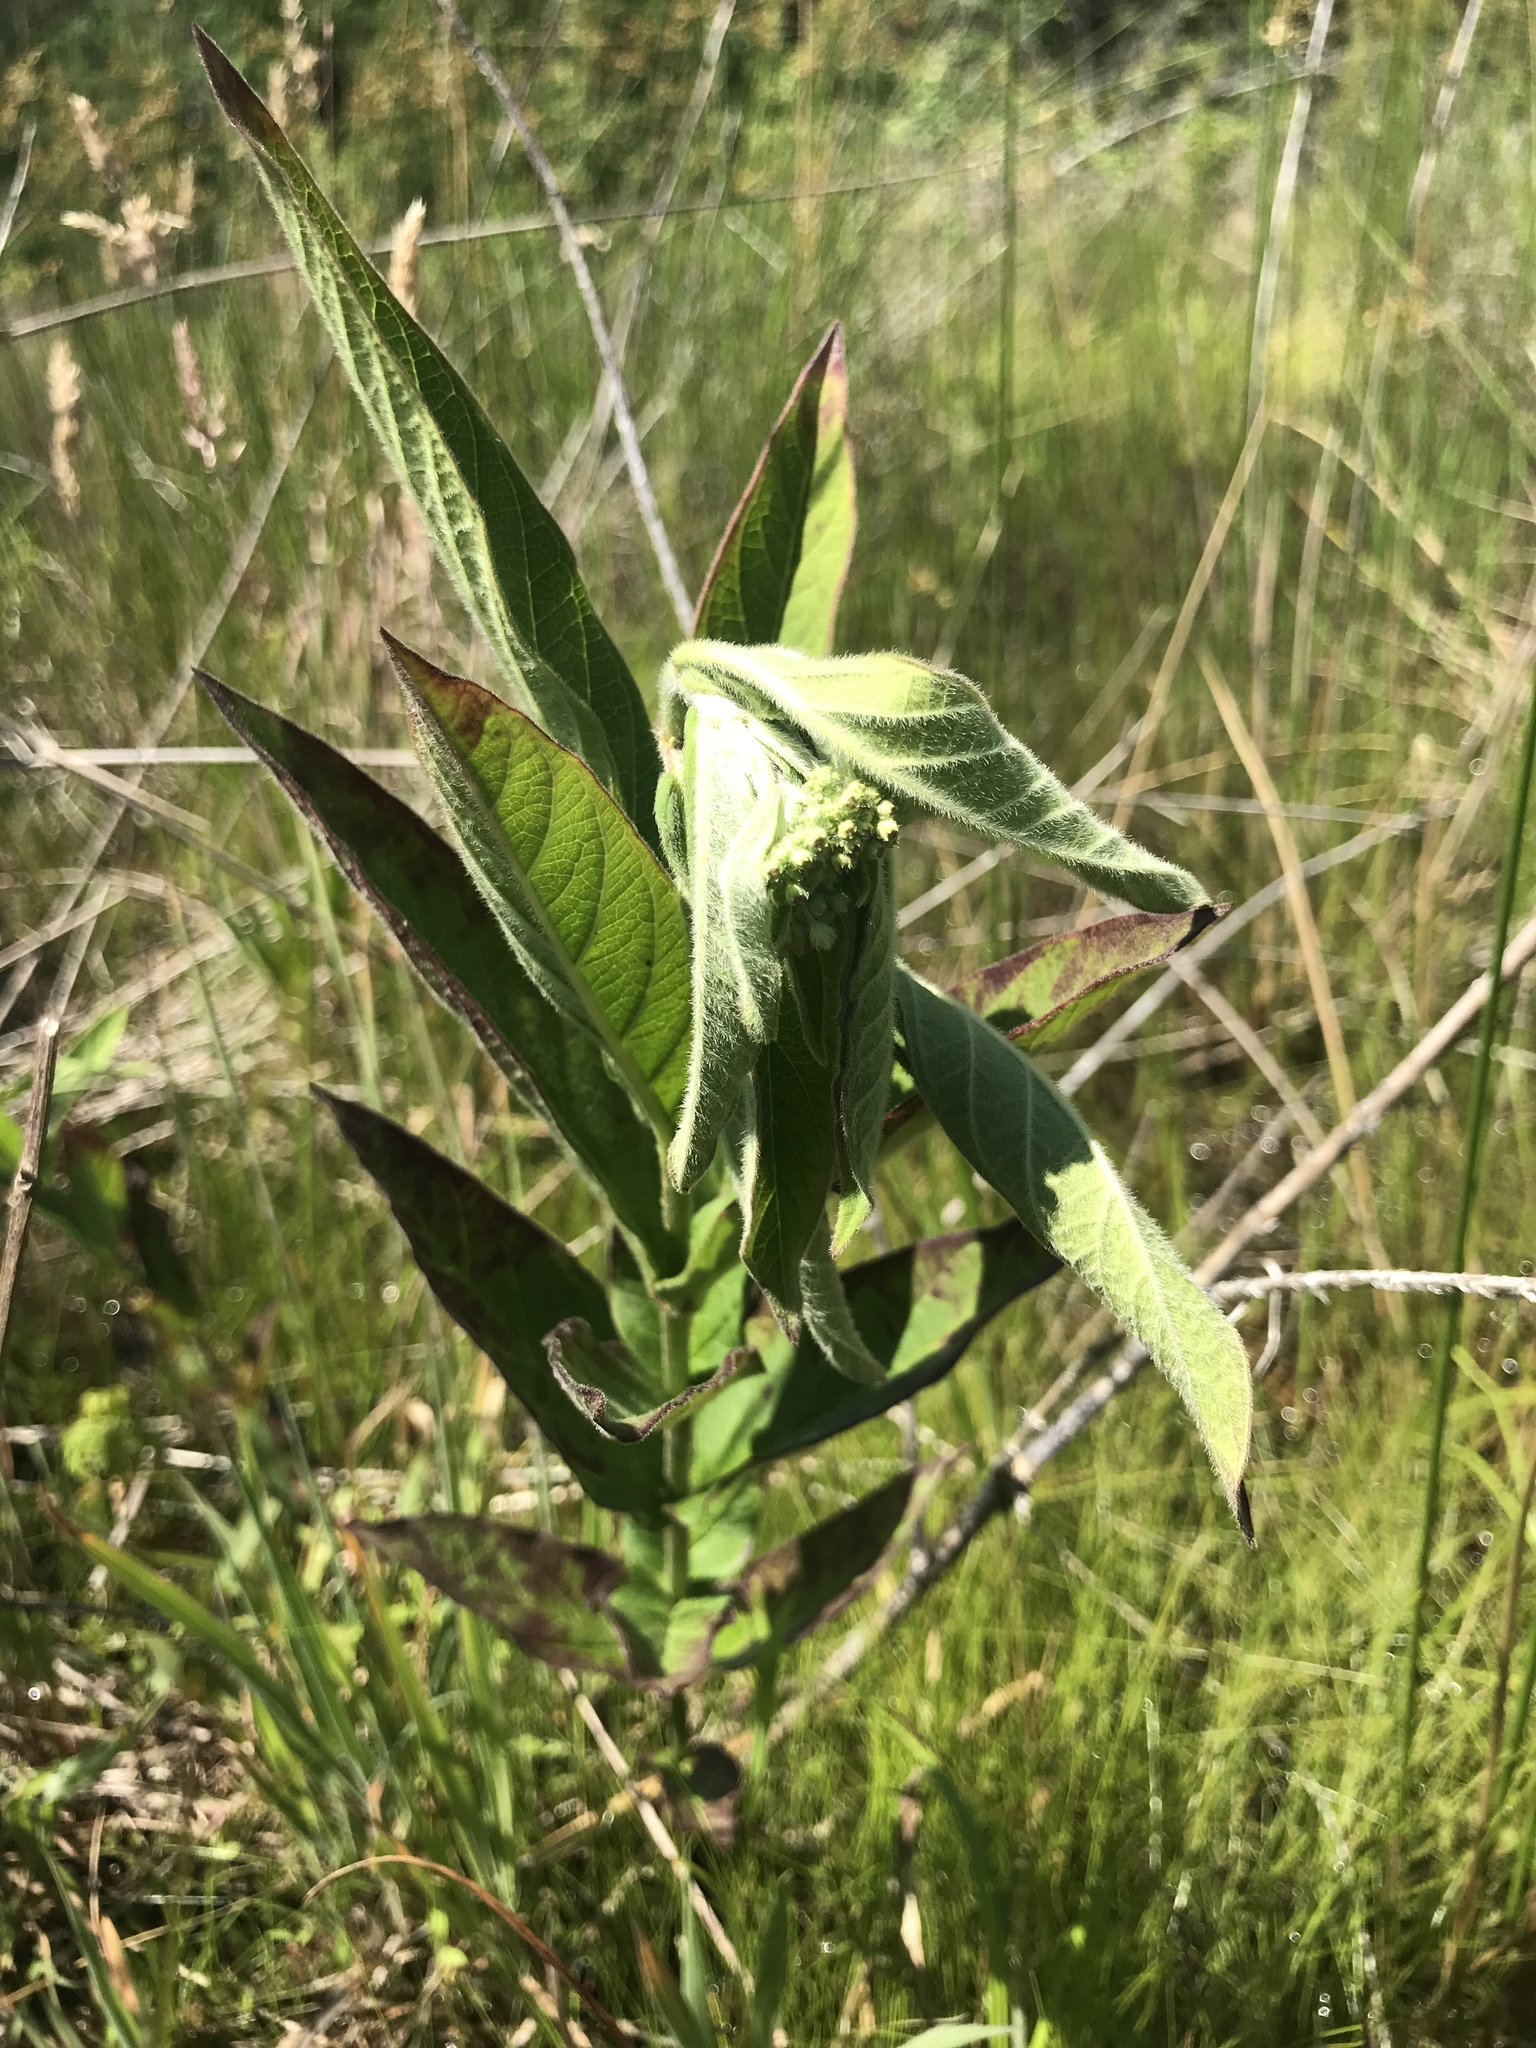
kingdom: Plantae
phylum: Tracheophyta
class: Magnoliopsida
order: Gentianales
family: Apocynaceae
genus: Asclepias
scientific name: Asclepias incarnata
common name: Swamp milkweed
